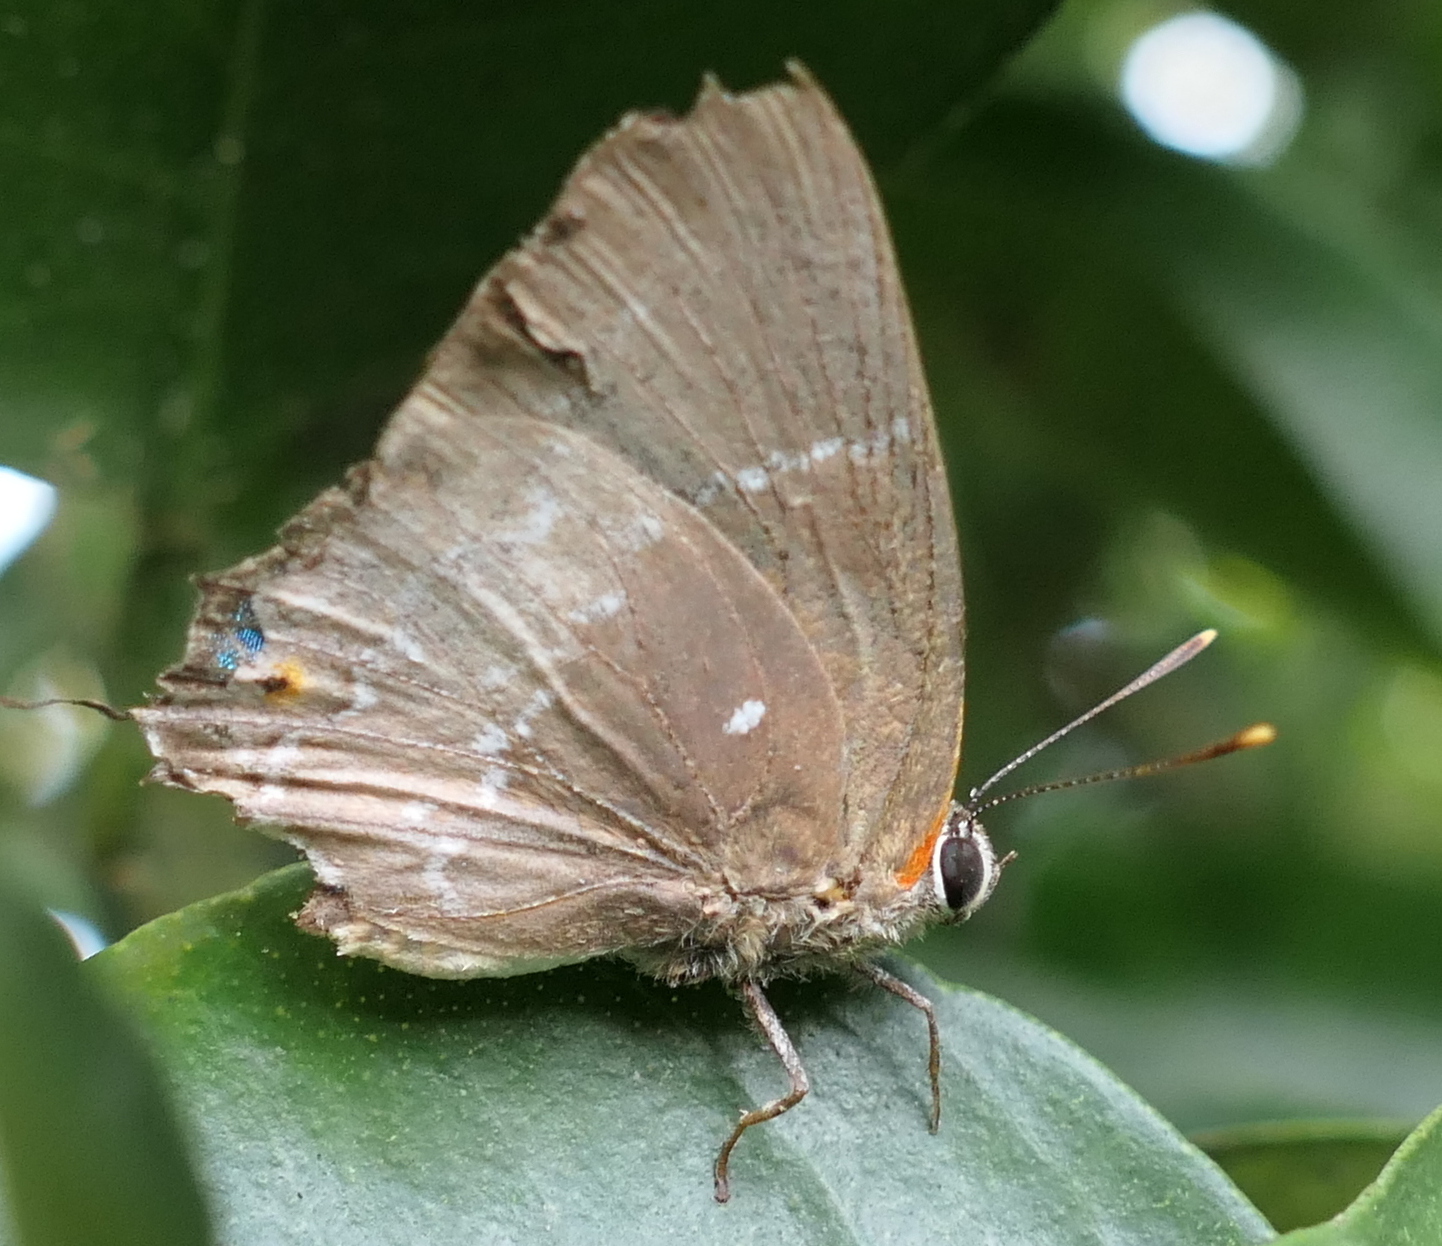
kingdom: Animalia
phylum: Arthropoda
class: Insecta
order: Lepidoptera
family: Lycaenidae
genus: Thecla
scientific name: Thecla phoenissa
